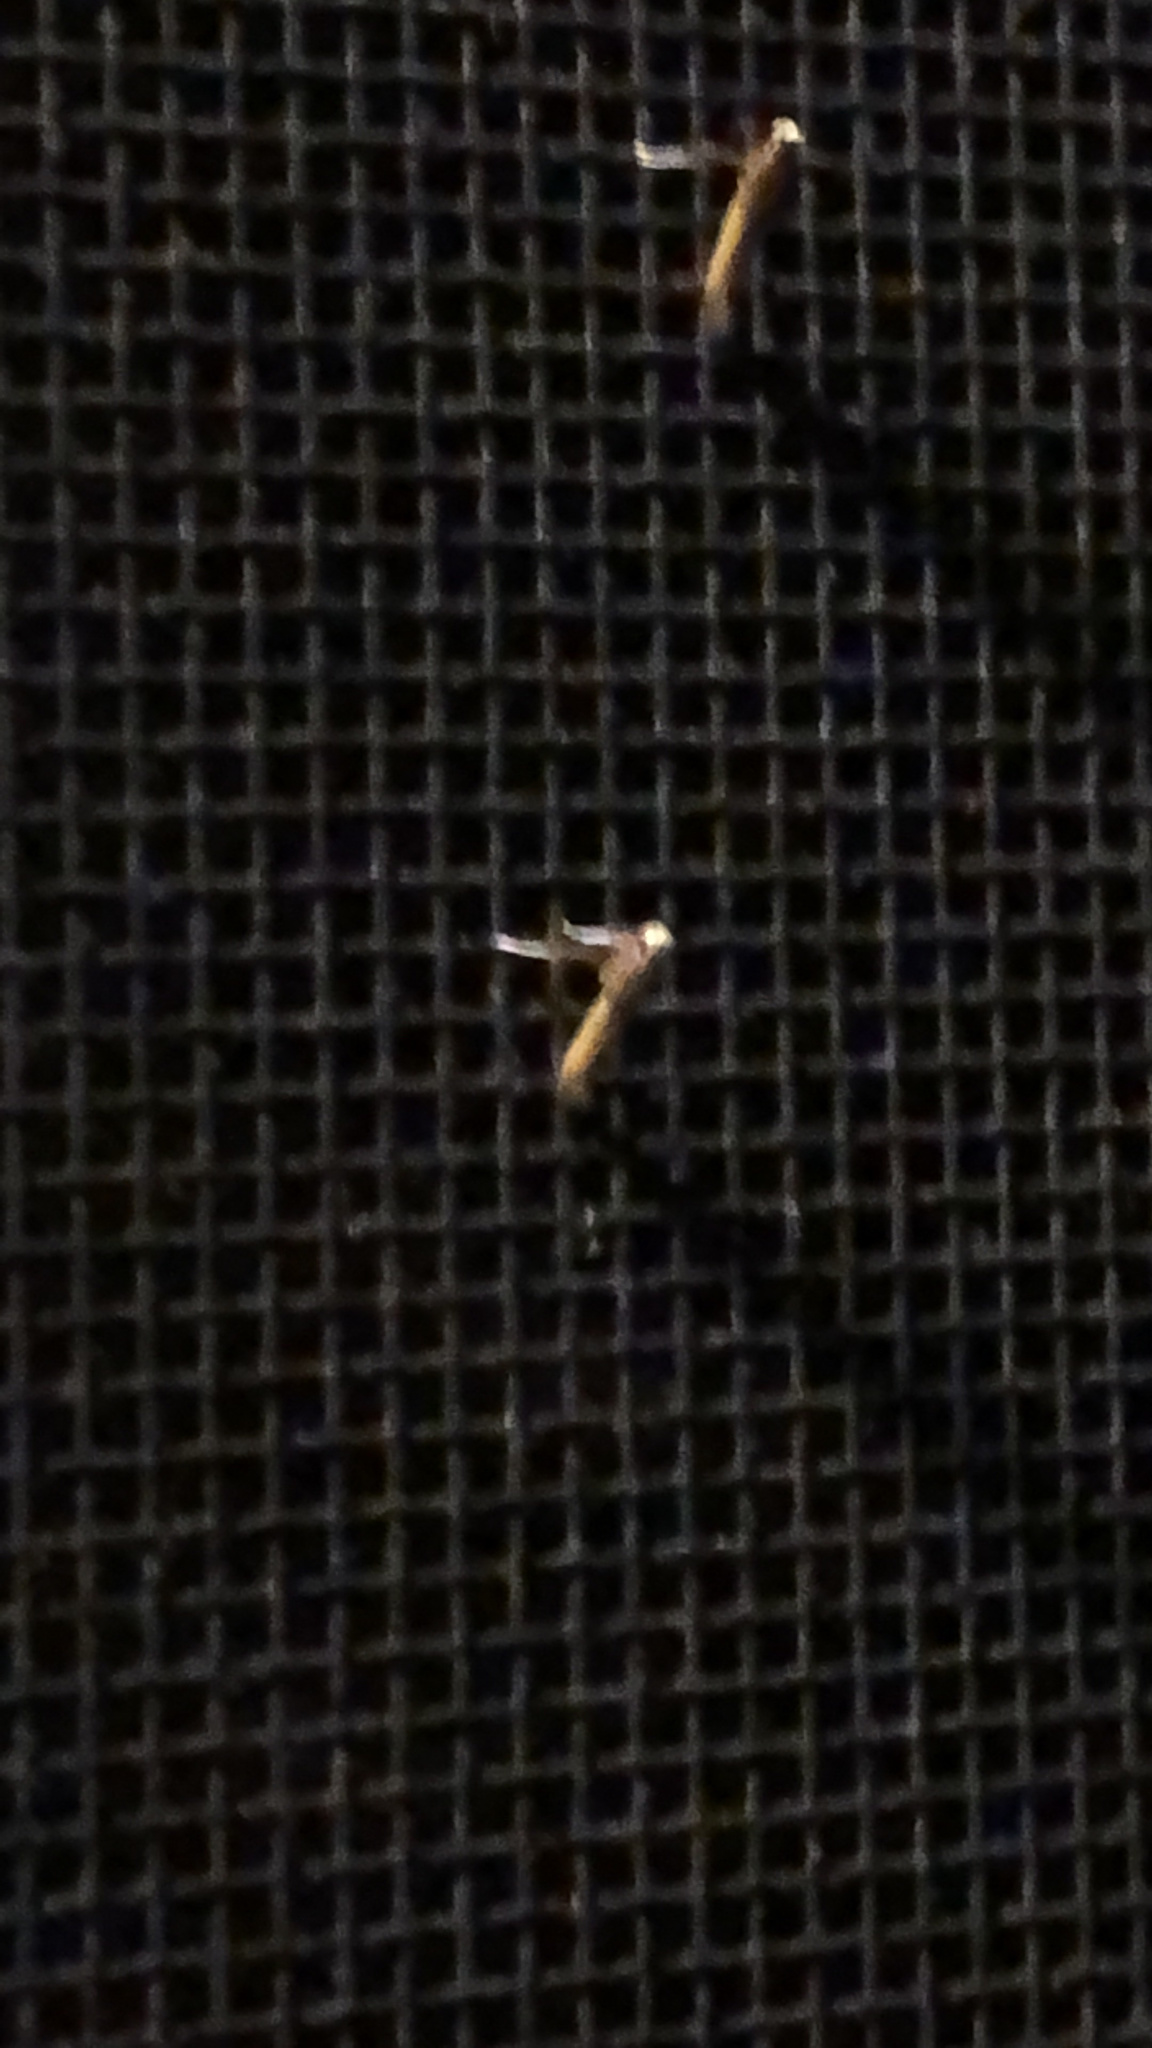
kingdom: Animalia
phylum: Arthropoda
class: Insecta
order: Lepidoptera
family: Gracillariidae
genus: Caloptilia
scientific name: Caloptilia
